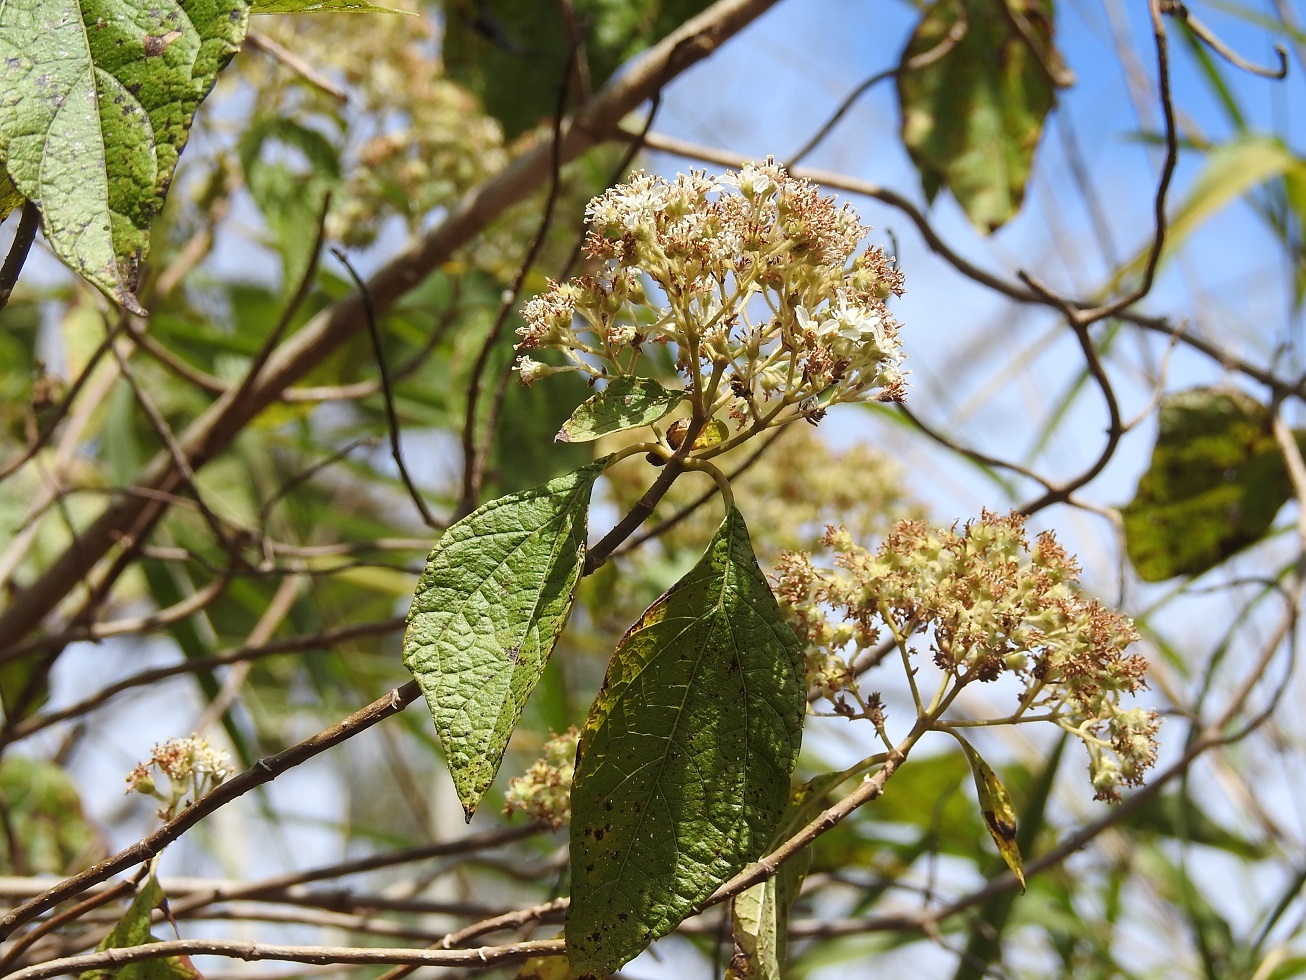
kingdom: Plantae
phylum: Tracheophyta
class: Magnoliopsida
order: Asterales
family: Asteraceae
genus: Montanoa
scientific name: Montanoa tomentosa
